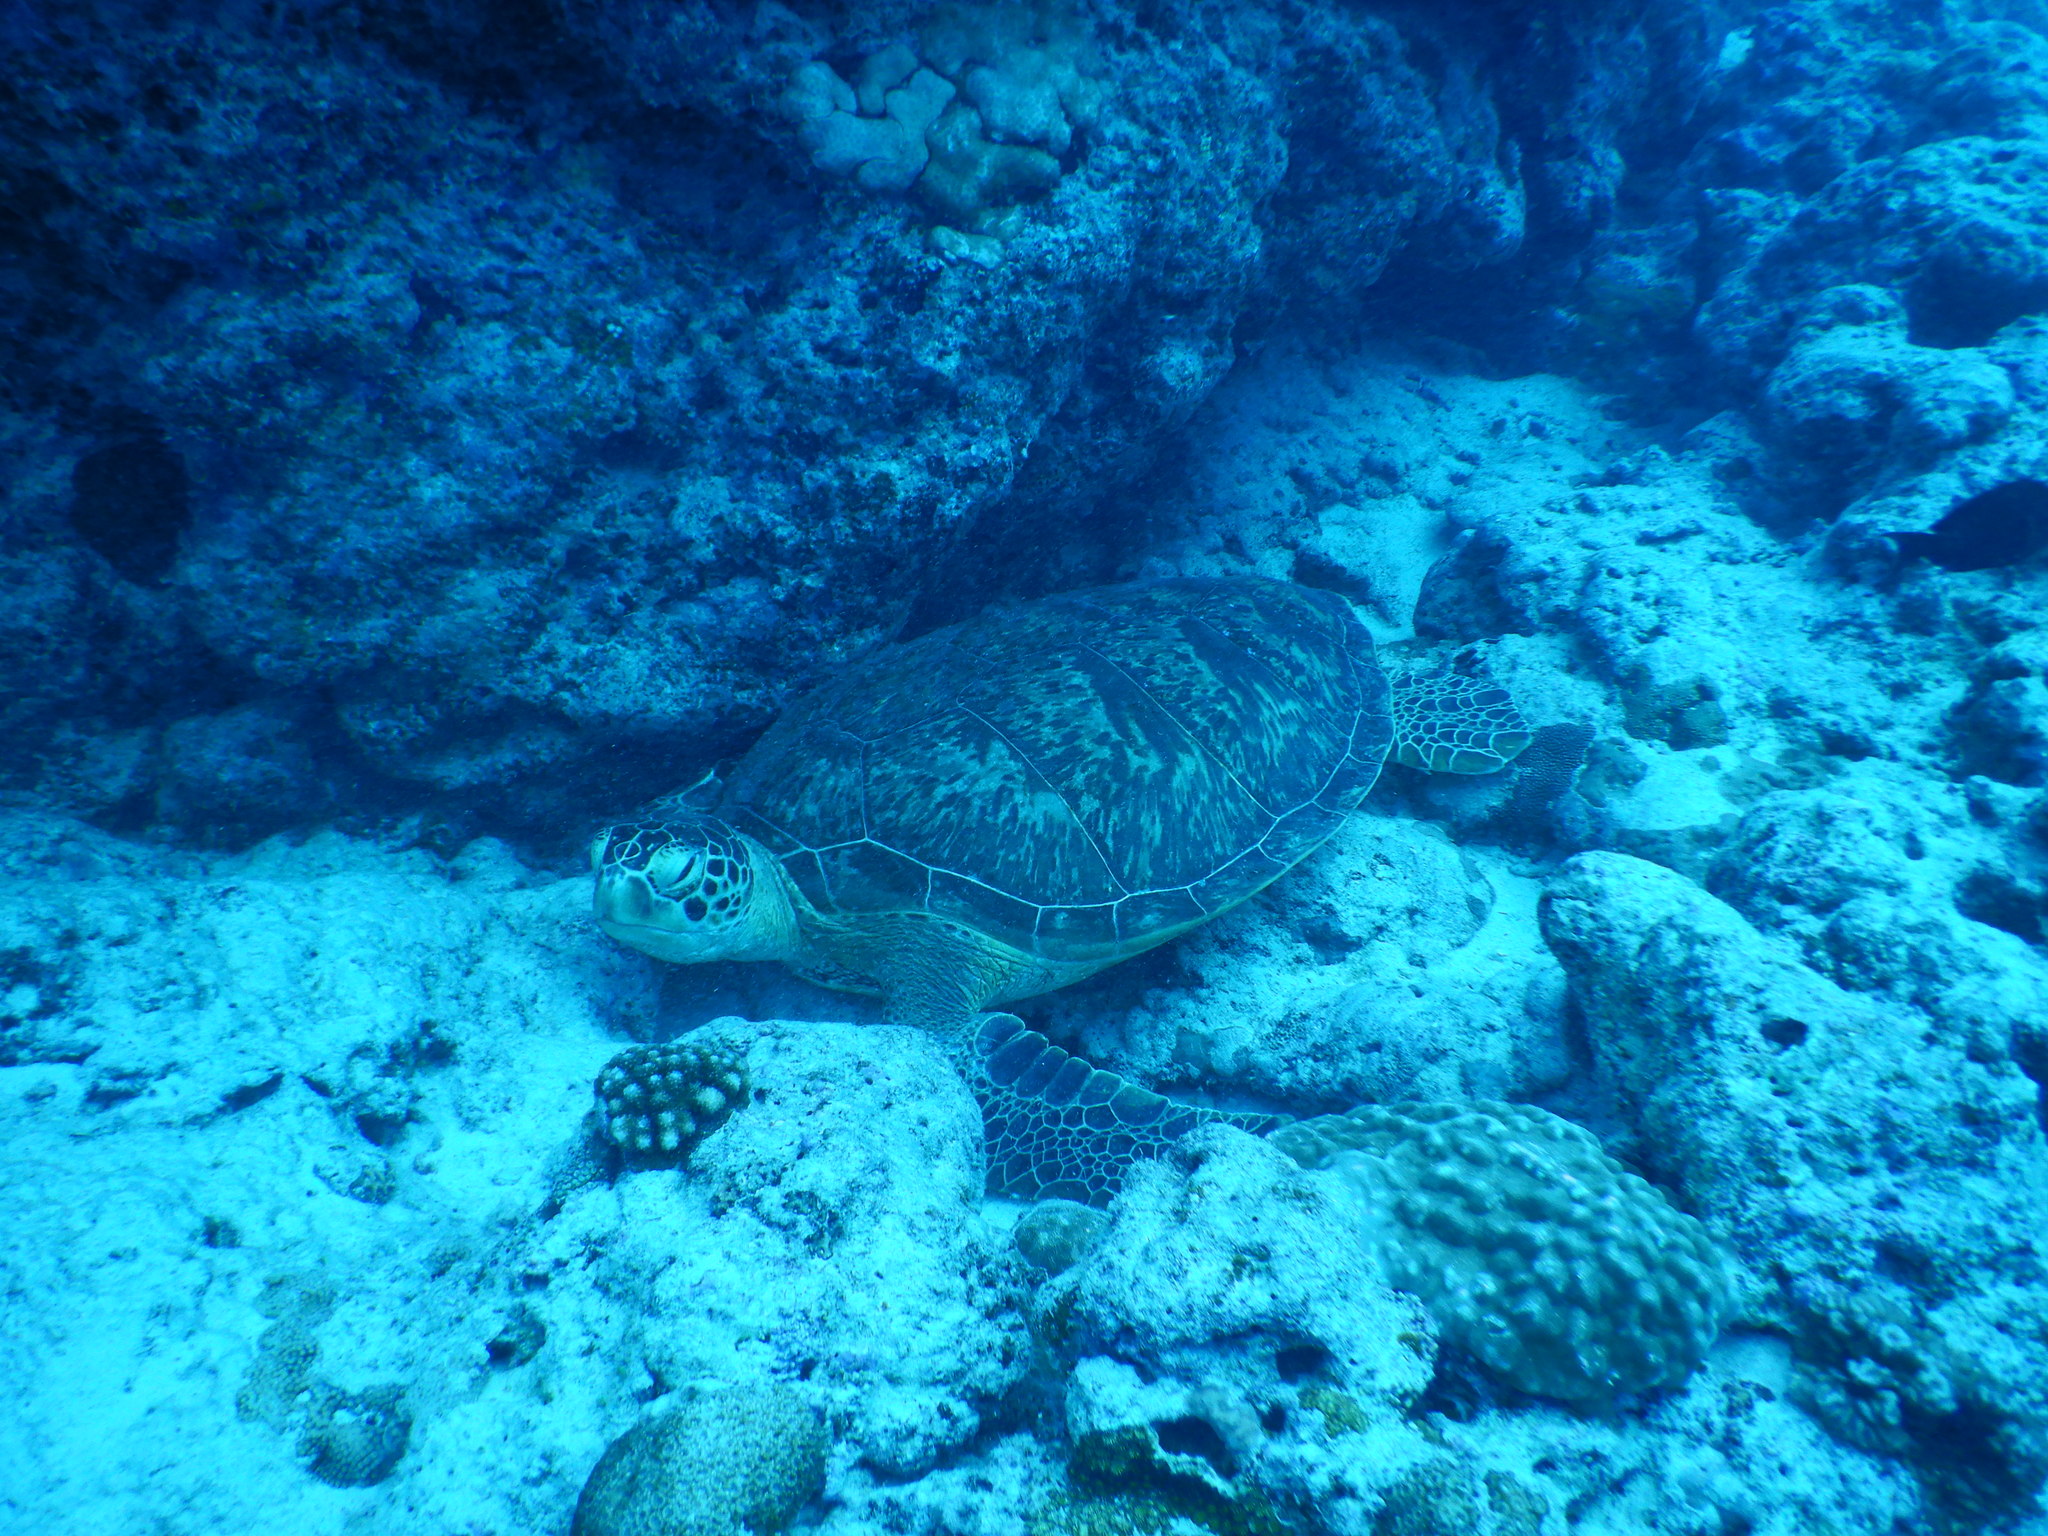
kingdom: Animalia
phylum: Chordata
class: Testudines
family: Cheloniidae
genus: Chelonia
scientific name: Chelonia mydas
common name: Green turtle
